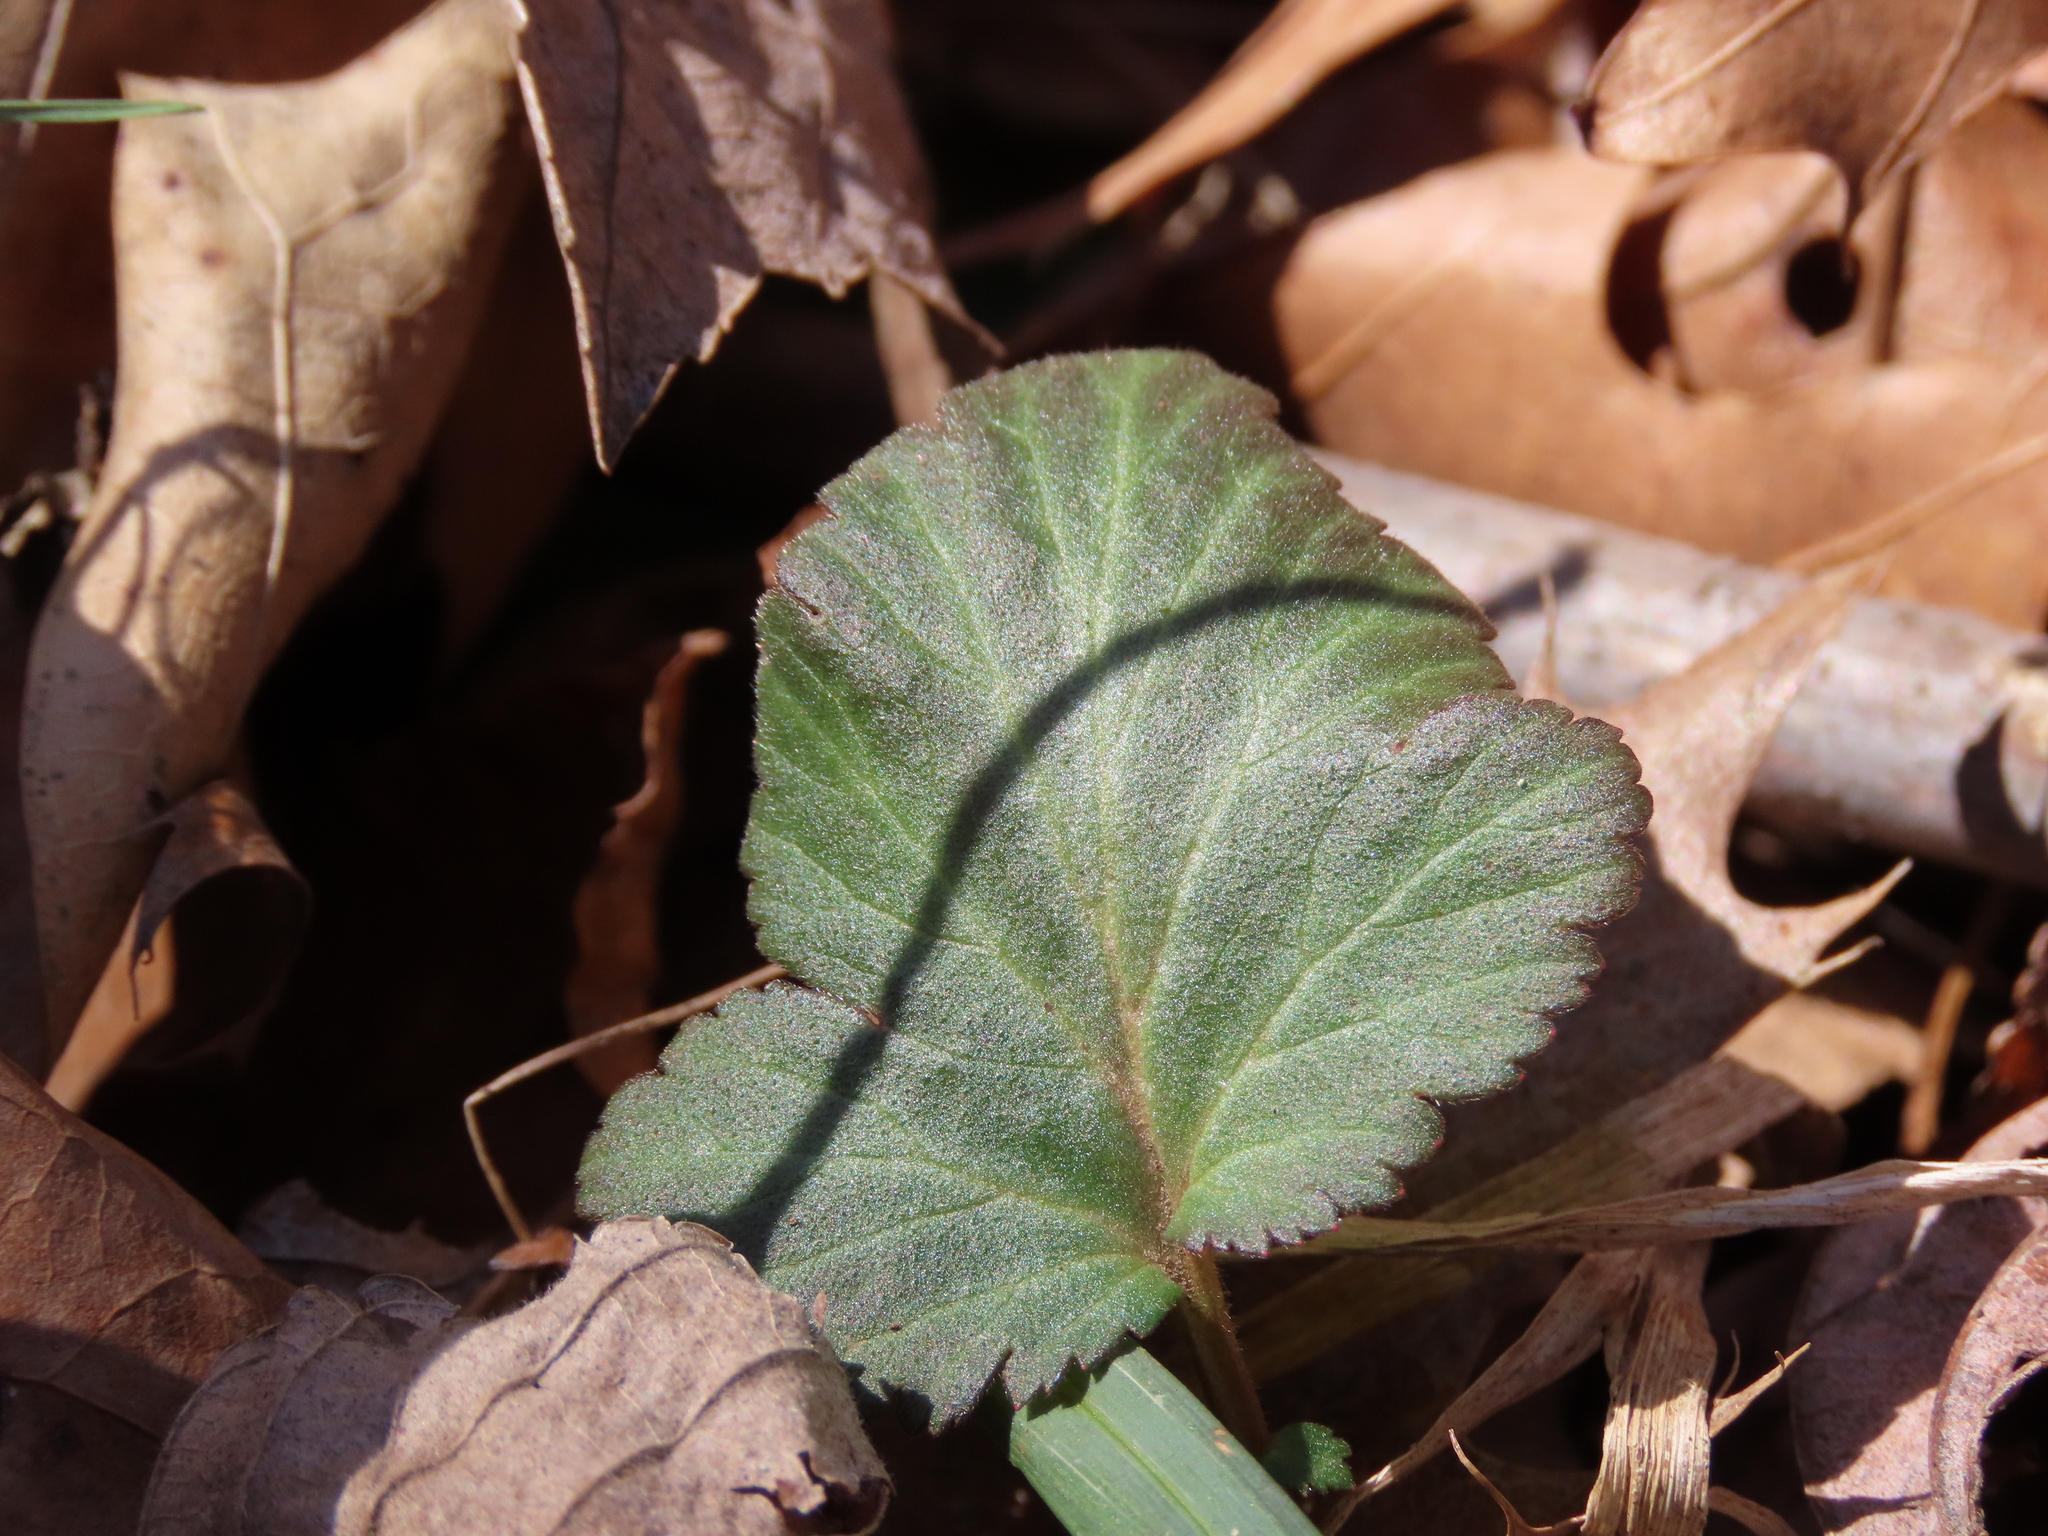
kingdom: Plantae
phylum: Tracheophyta
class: Magnoliopsida
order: Rosales
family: Rosaceae
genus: Geum
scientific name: Geum canadense
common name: White avens
